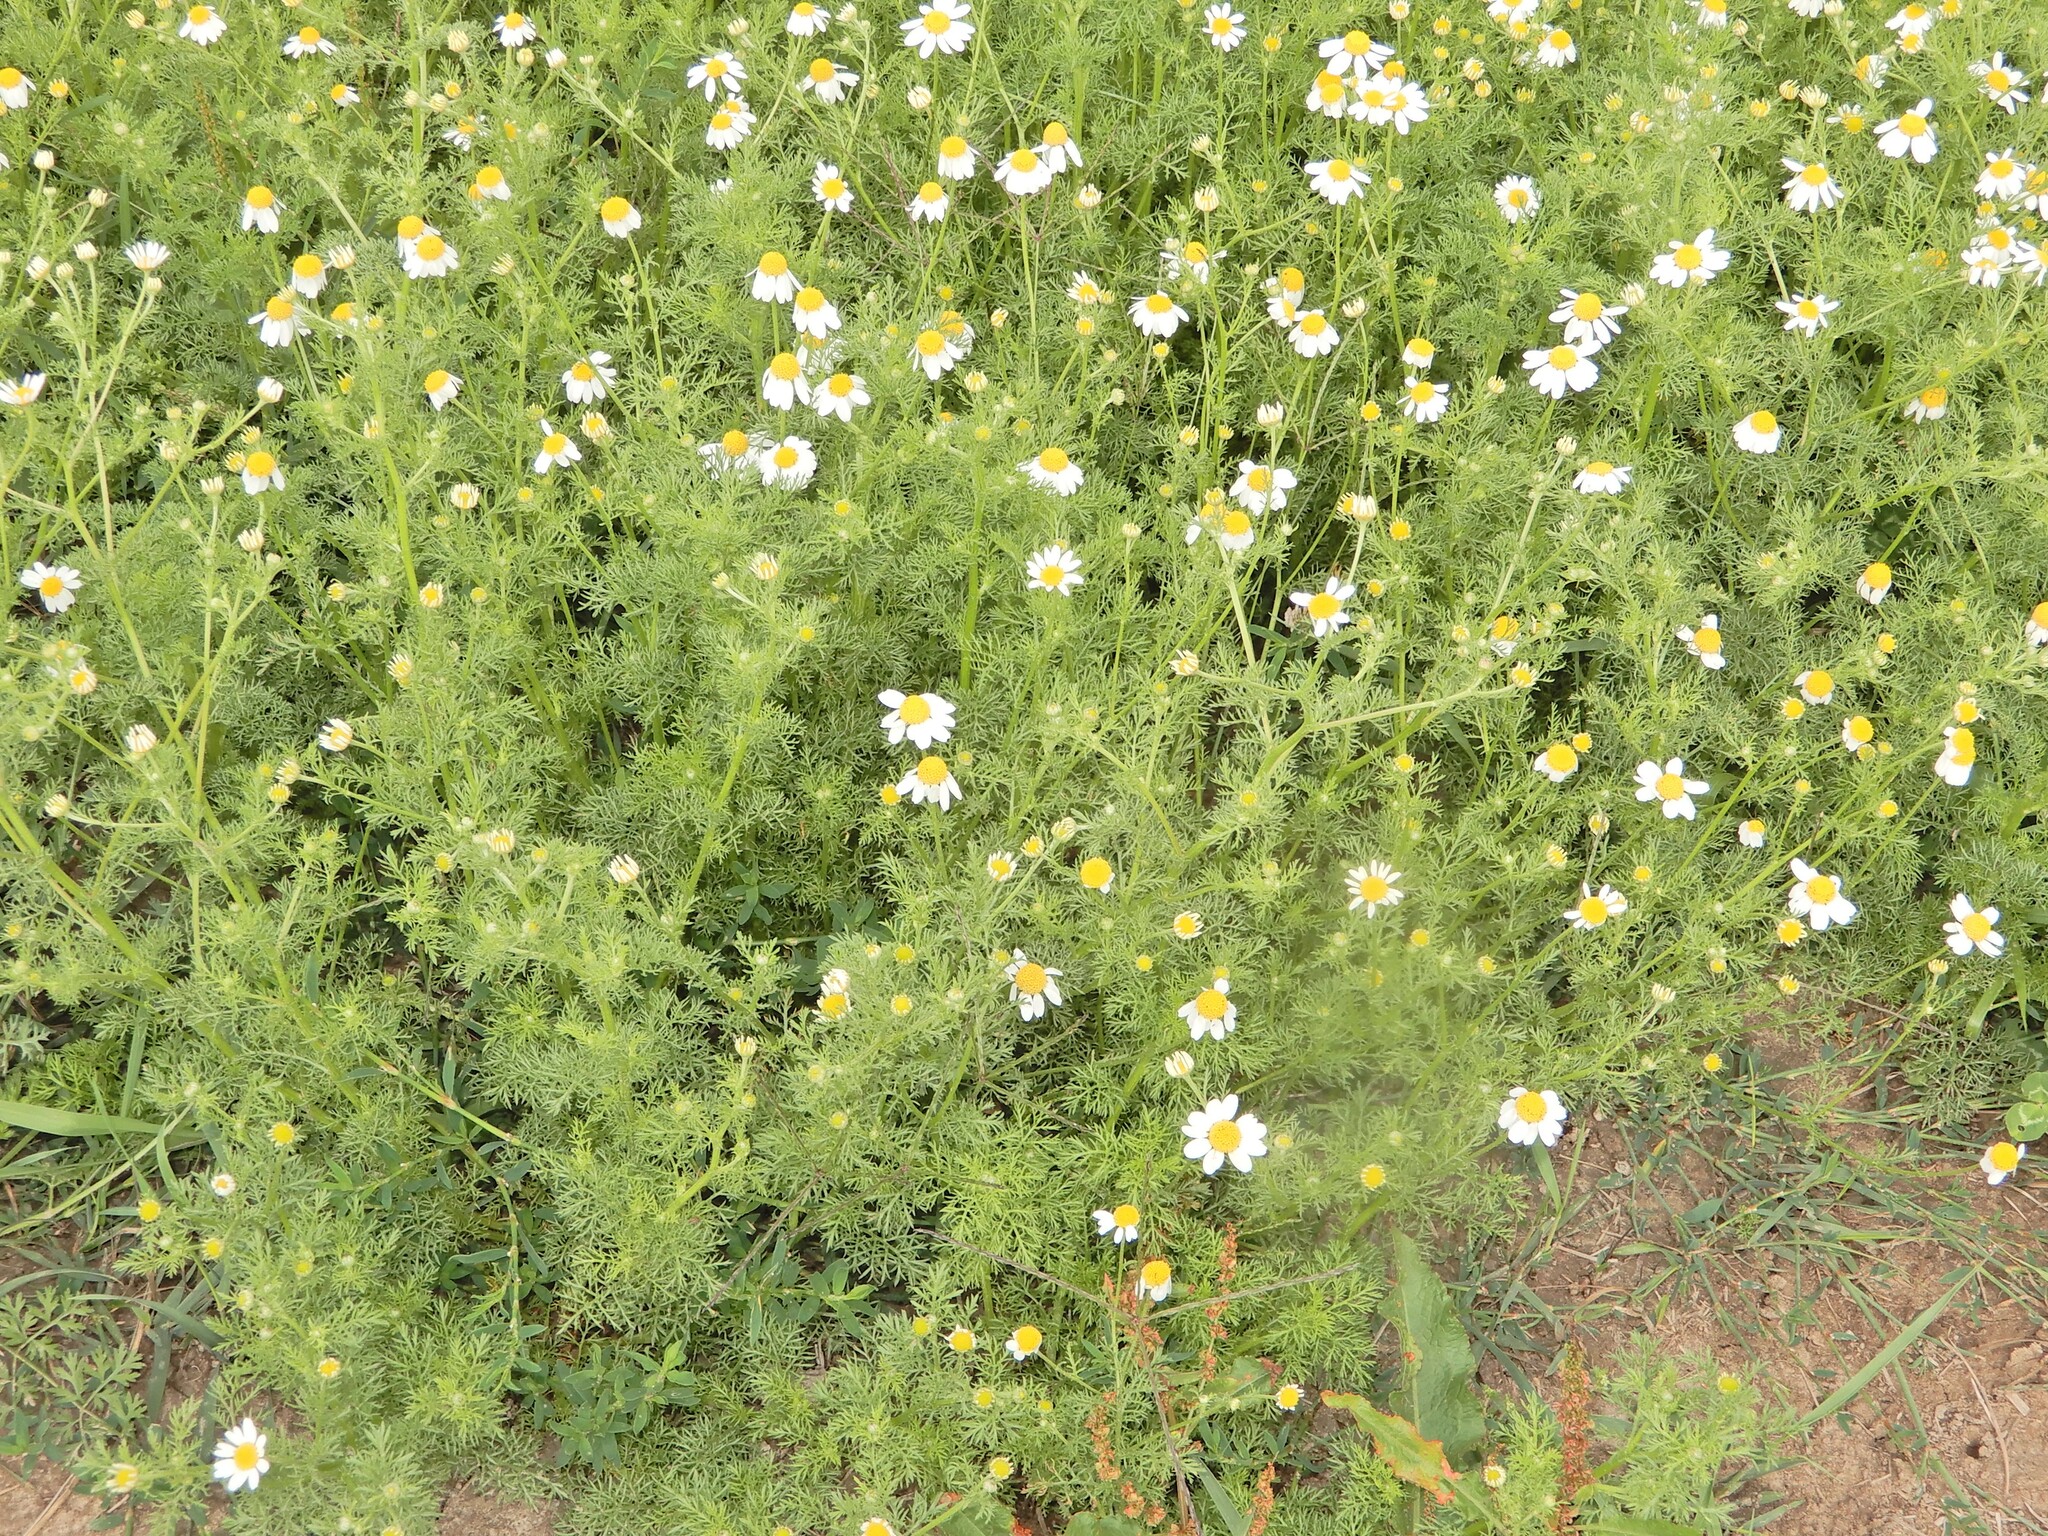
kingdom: Plantae
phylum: Tracheophyta
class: Magnoliopsida
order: Asterales
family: Asteraceae
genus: Anthemis
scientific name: Anthemis cotula
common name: Stinking chamomile
